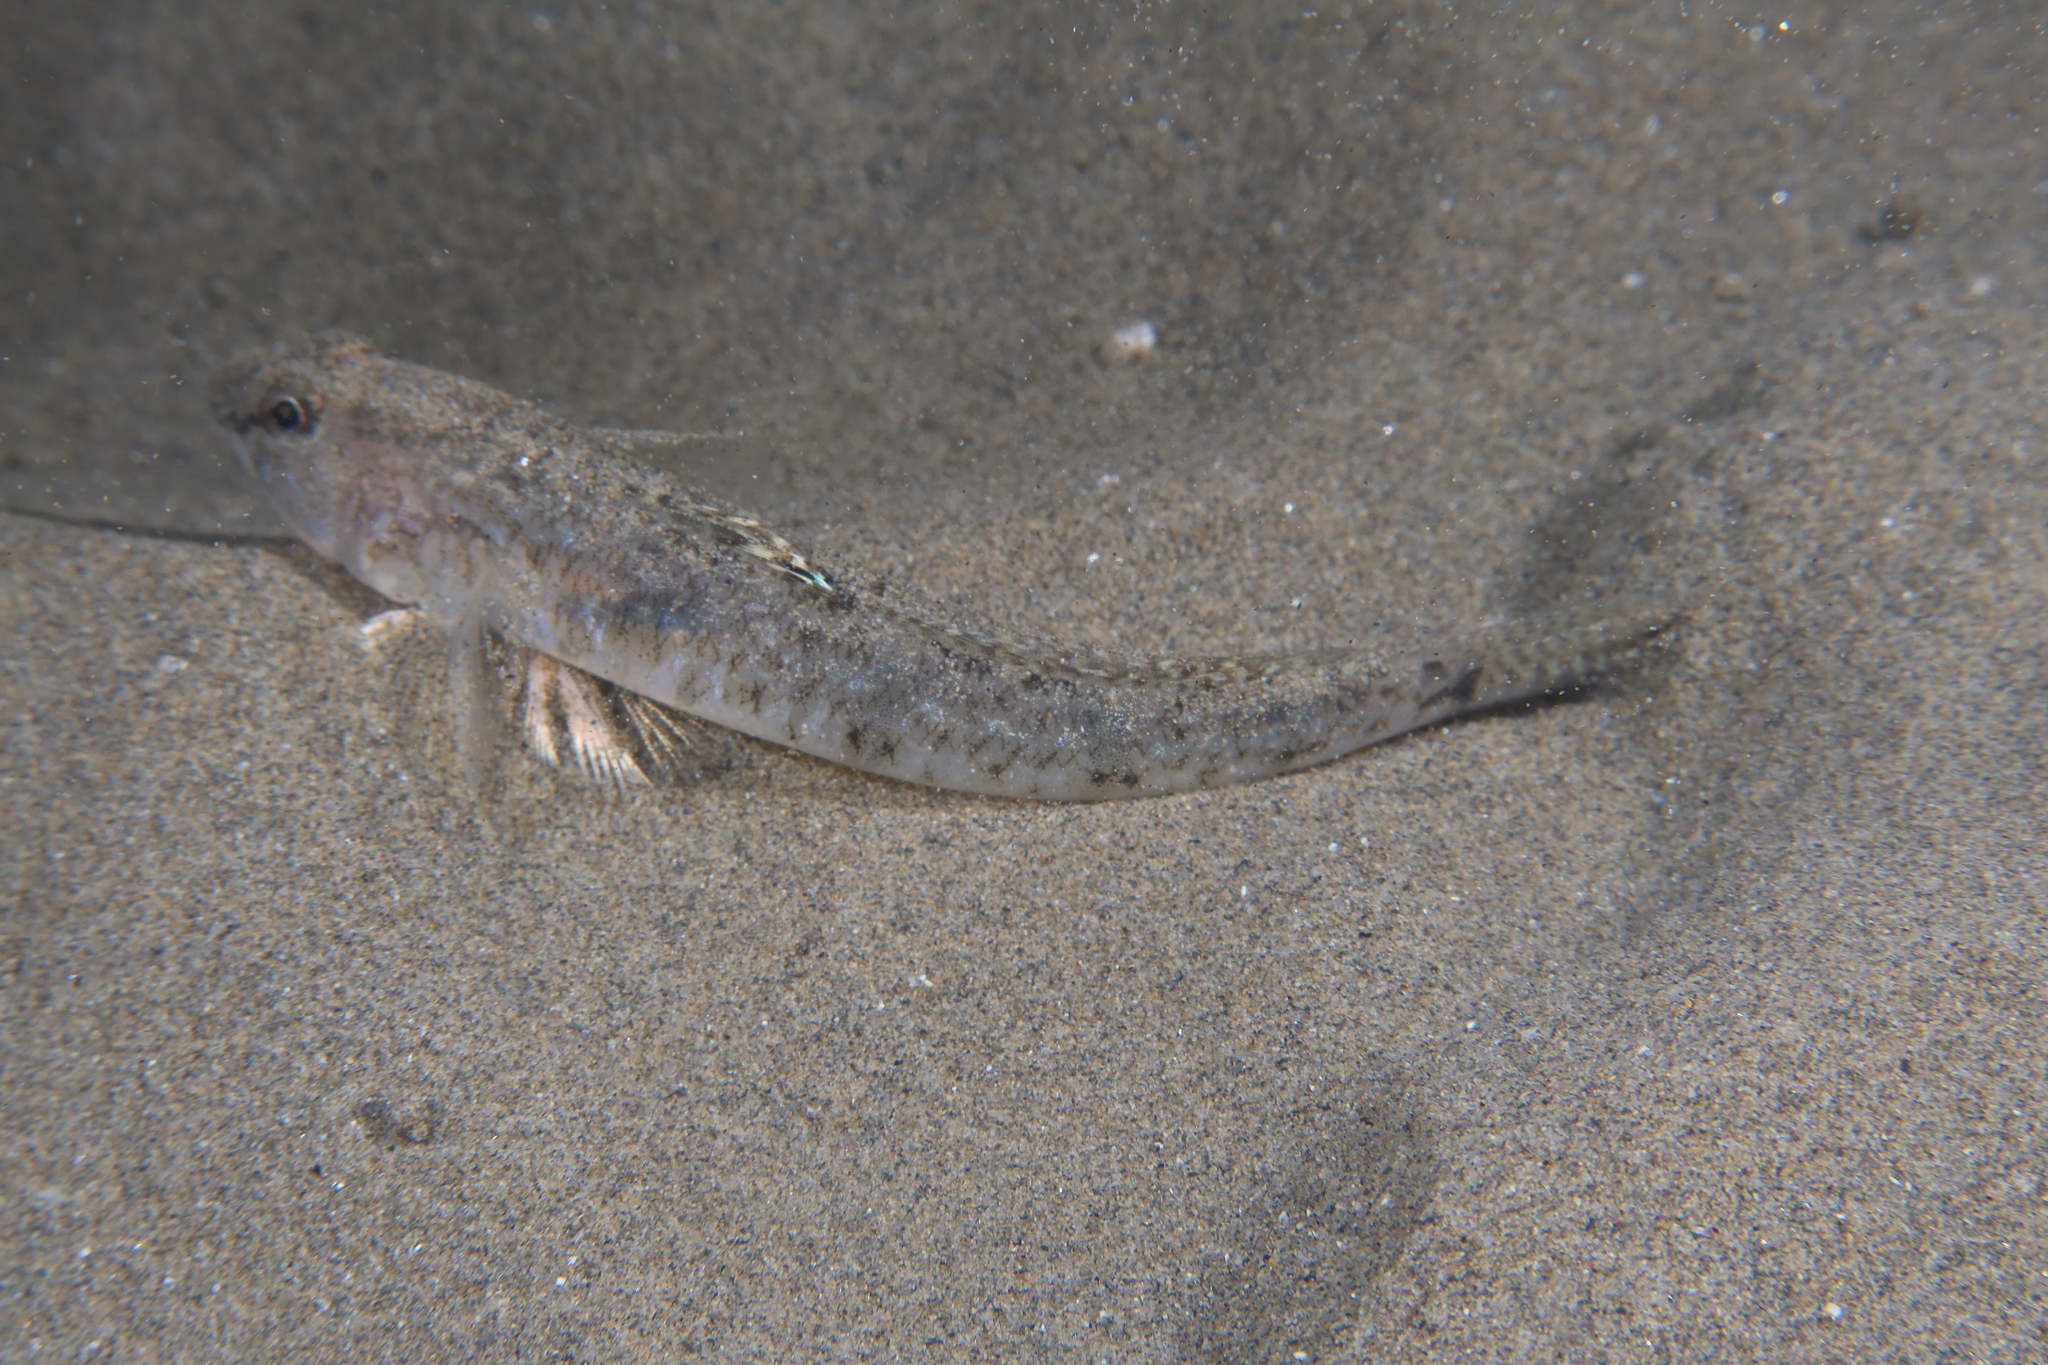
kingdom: Animalia
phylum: Chordata
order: Perciformes
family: Gobiidae
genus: Pomatoschistus
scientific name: Pomatoschistus minutus
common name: Sand goby
